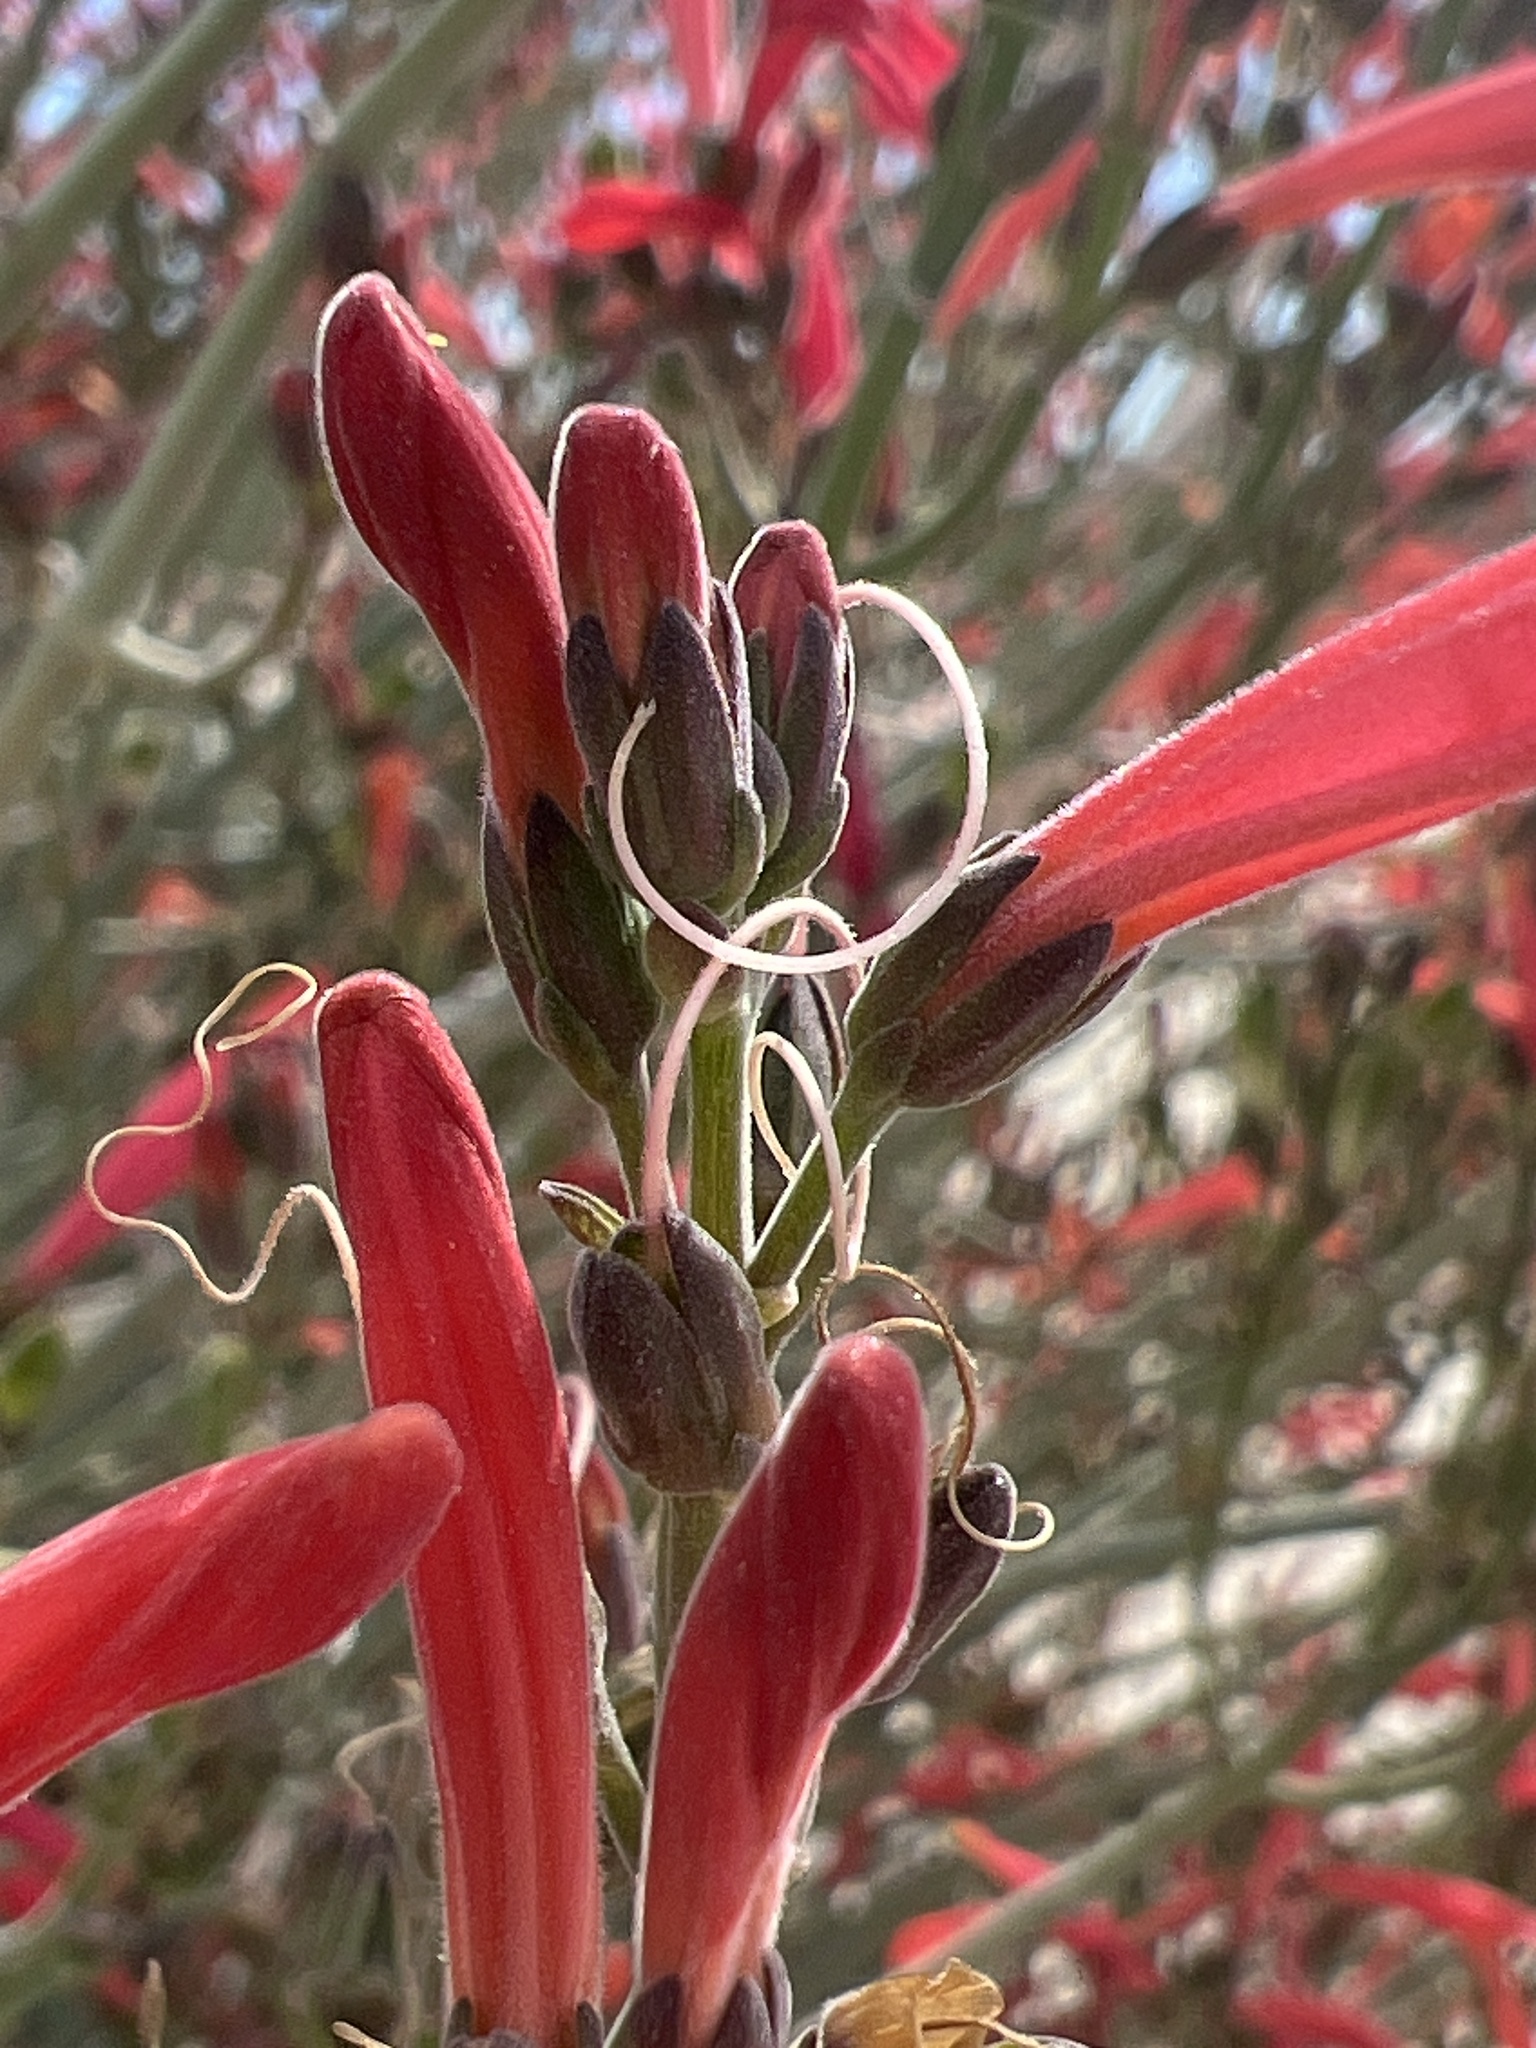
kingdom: Plantae
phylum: Tracheophyta
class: Magnoliopsida
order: Lamiales
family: Acanthaceae
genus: Justicia
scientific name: Justicia californica
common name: Chuparosa-honeysuckle
